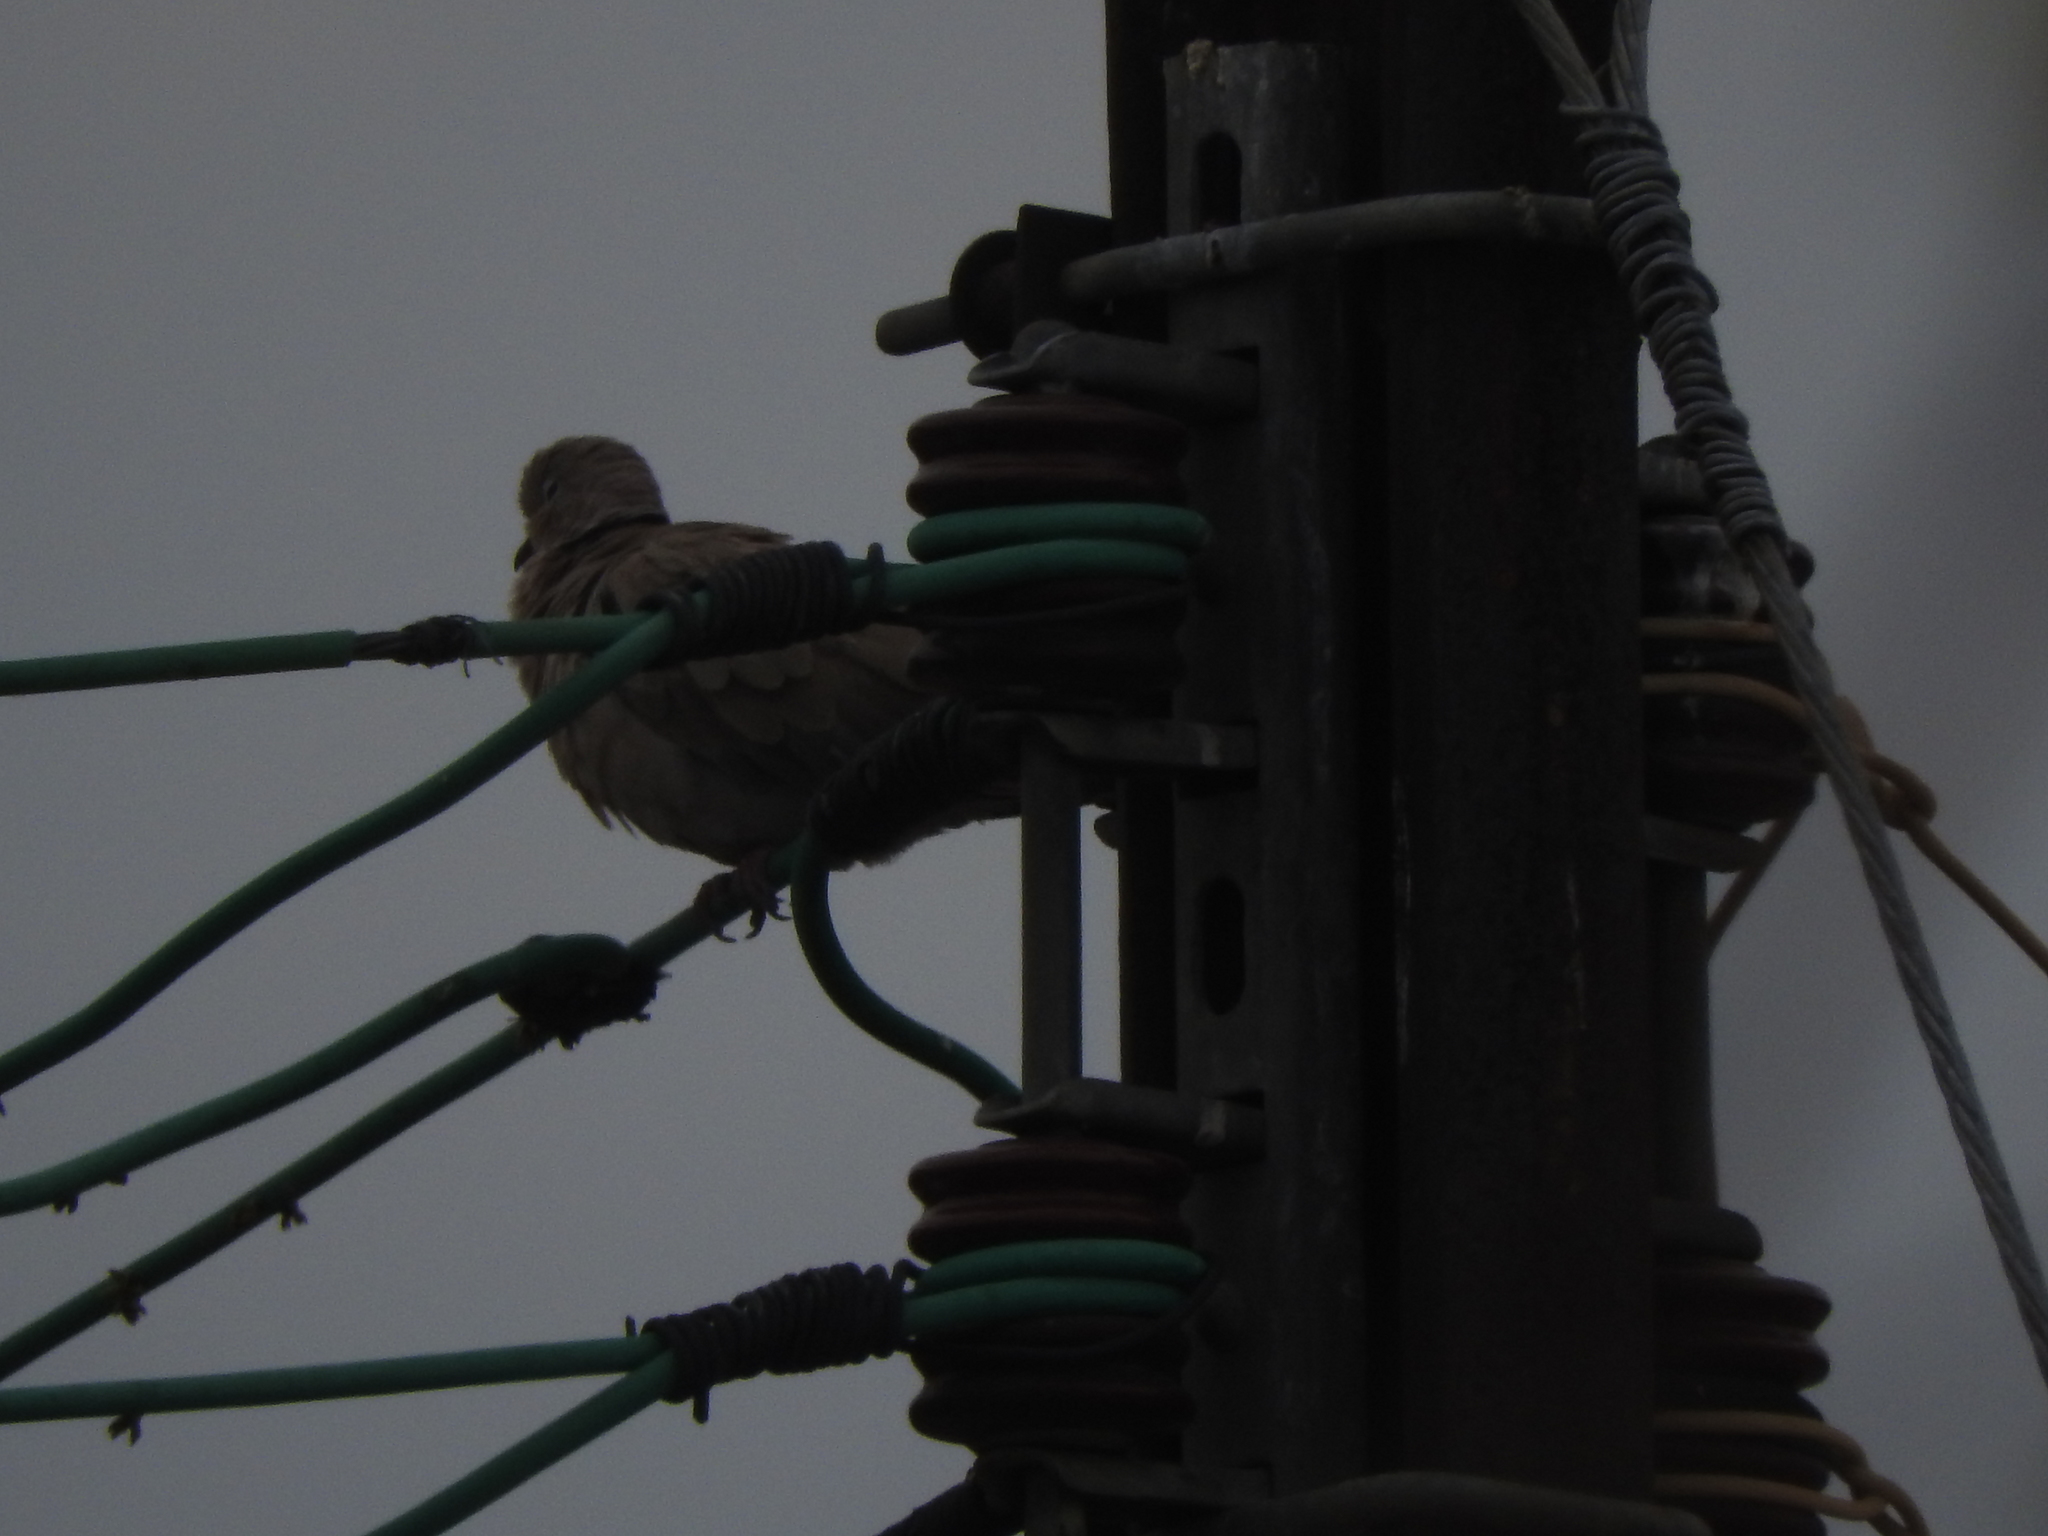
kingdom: Animalia
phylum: Chordata
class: Aves
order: Columbiformes
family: Columbidae
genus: Streptopelia
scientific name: Streptopelia decaocto
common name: Eurasian collared dove
